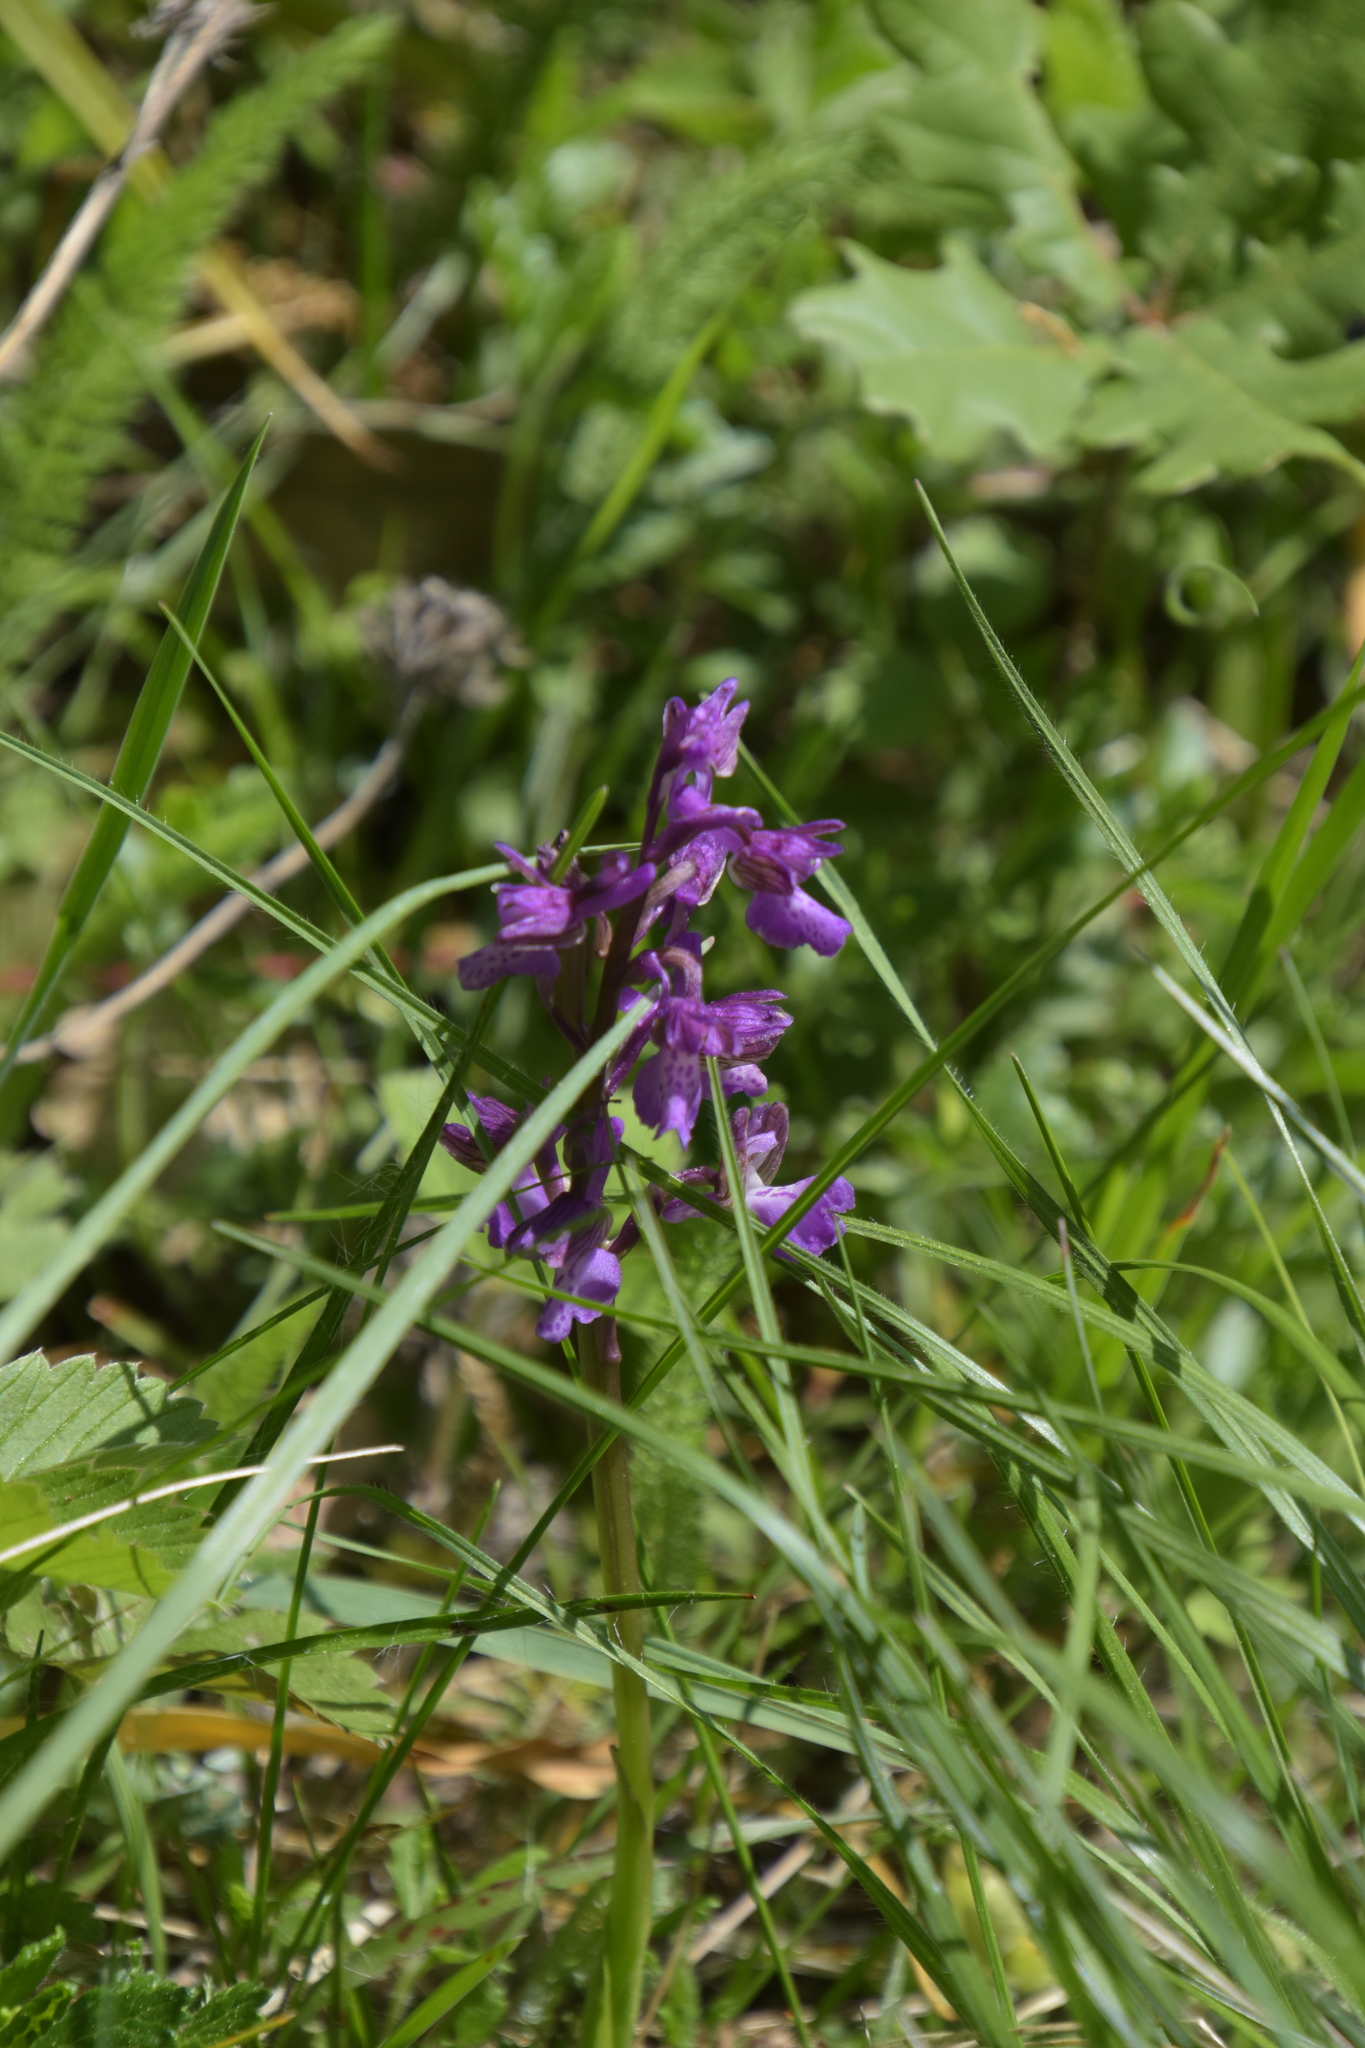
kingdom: Plantae
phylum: Tracheophyta
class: Liliopsida
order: Asparagales
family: Orchidaceae
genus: Anacamptis
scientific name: Anacamptis morio
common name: Green-winged orchid
